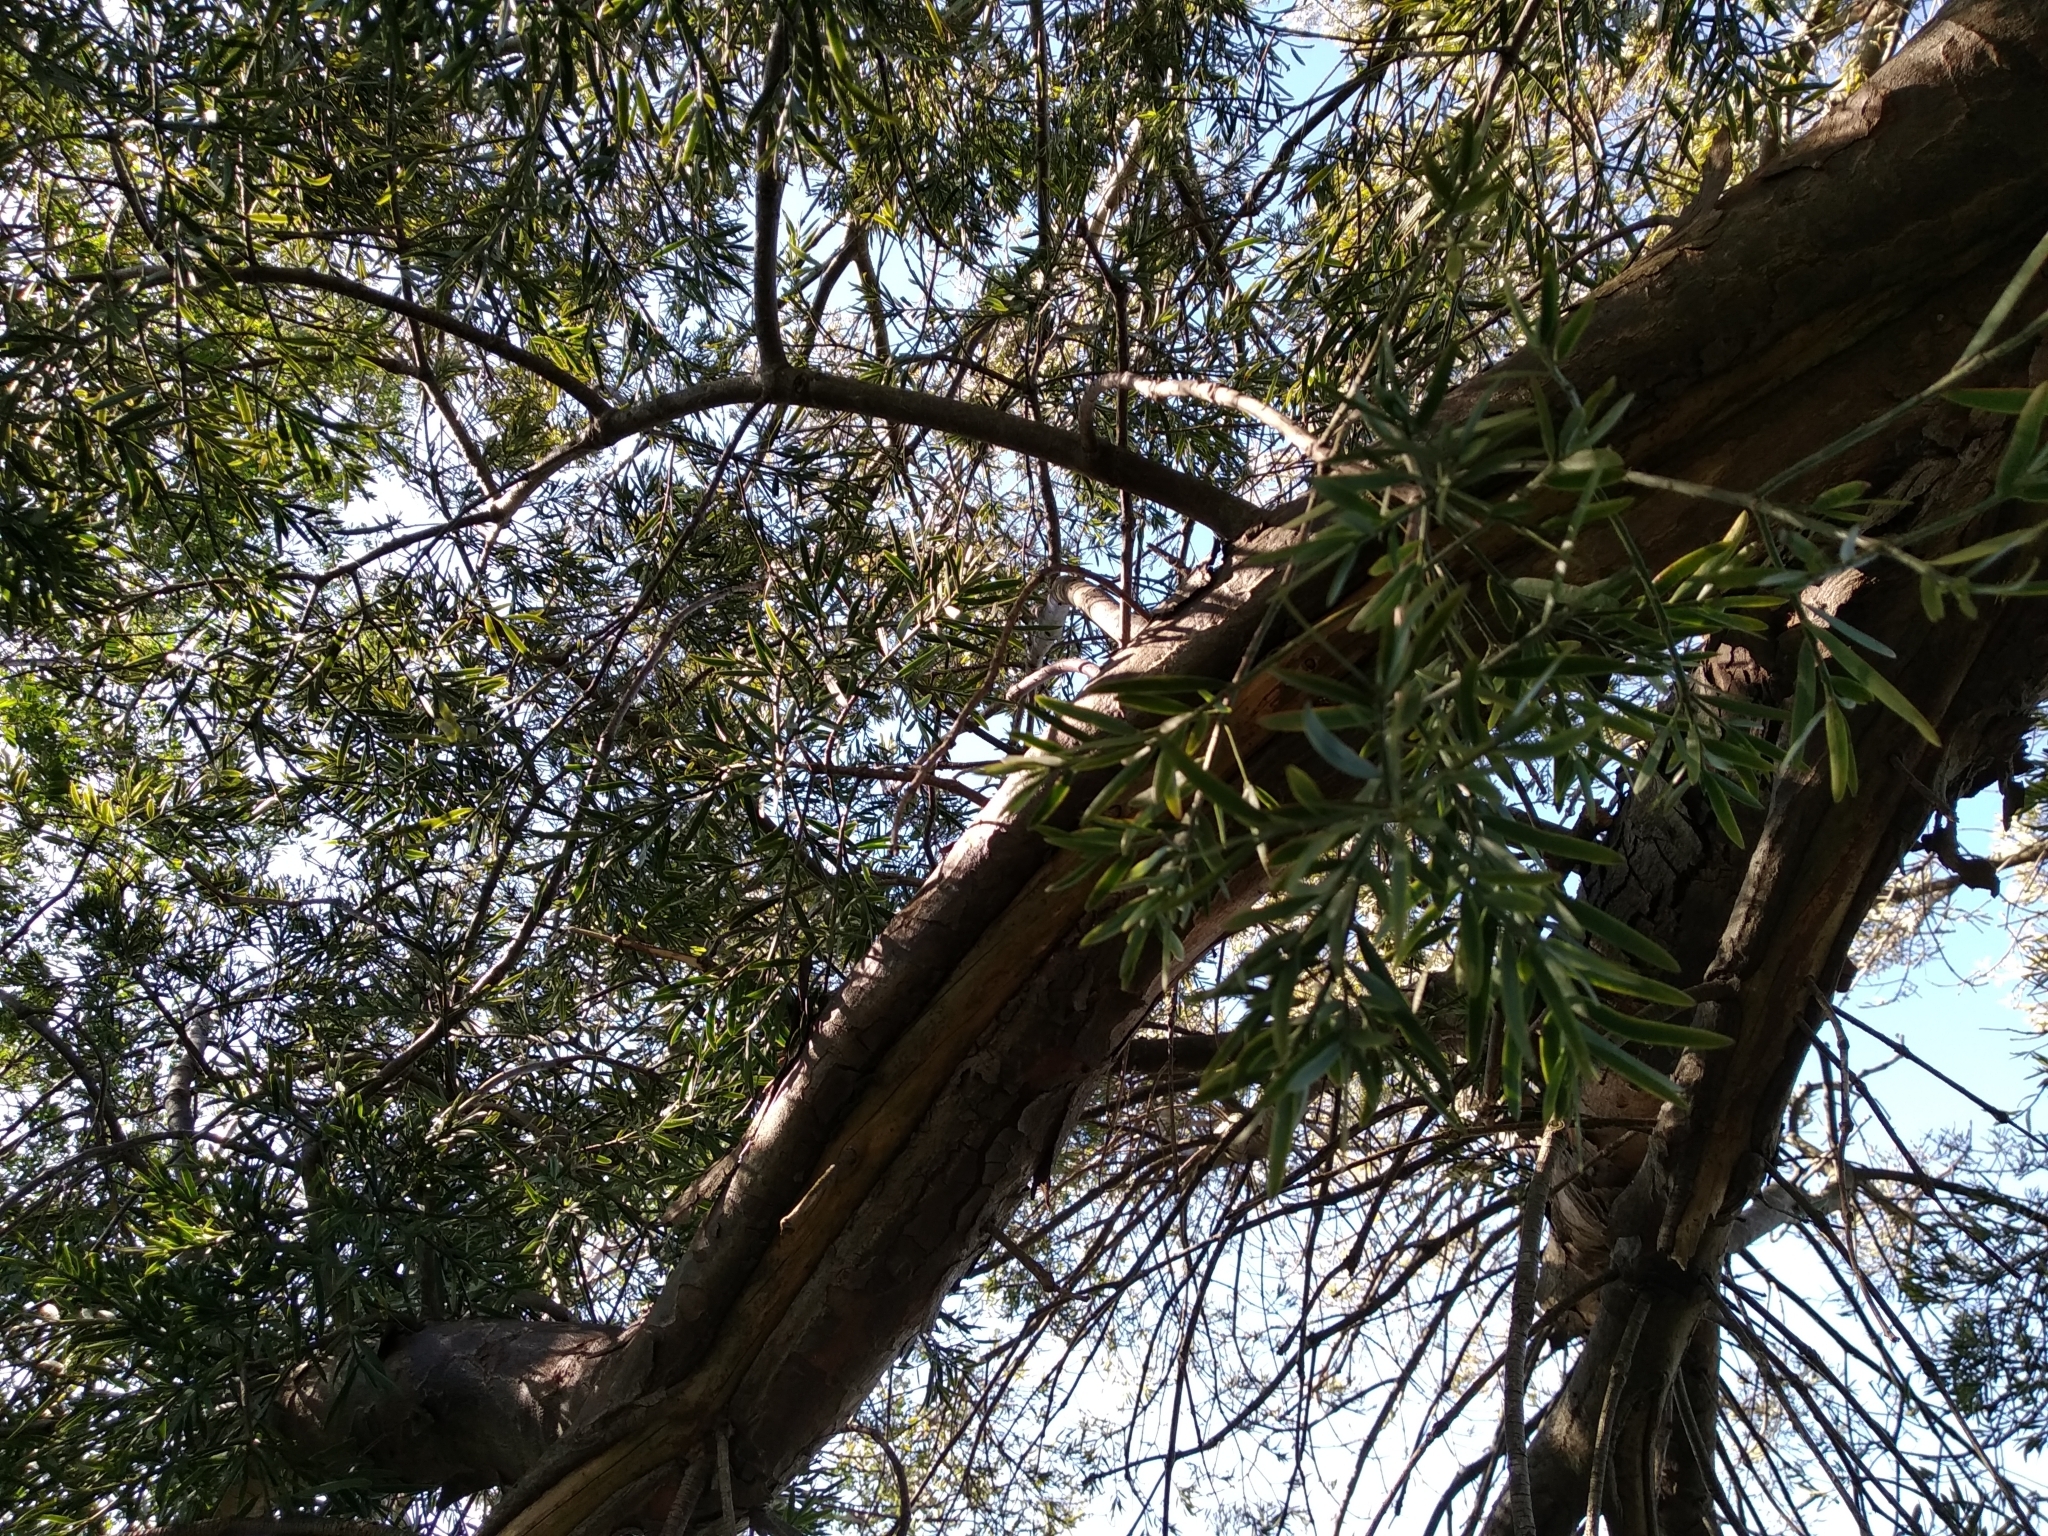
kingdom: Plantae
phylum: Tracheophyta
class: Pinopsida
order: Pinales
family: Podocarpaceae
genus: Afrocarpus
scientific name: Afrocarpus falcatus
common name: Bastard yellowwood
